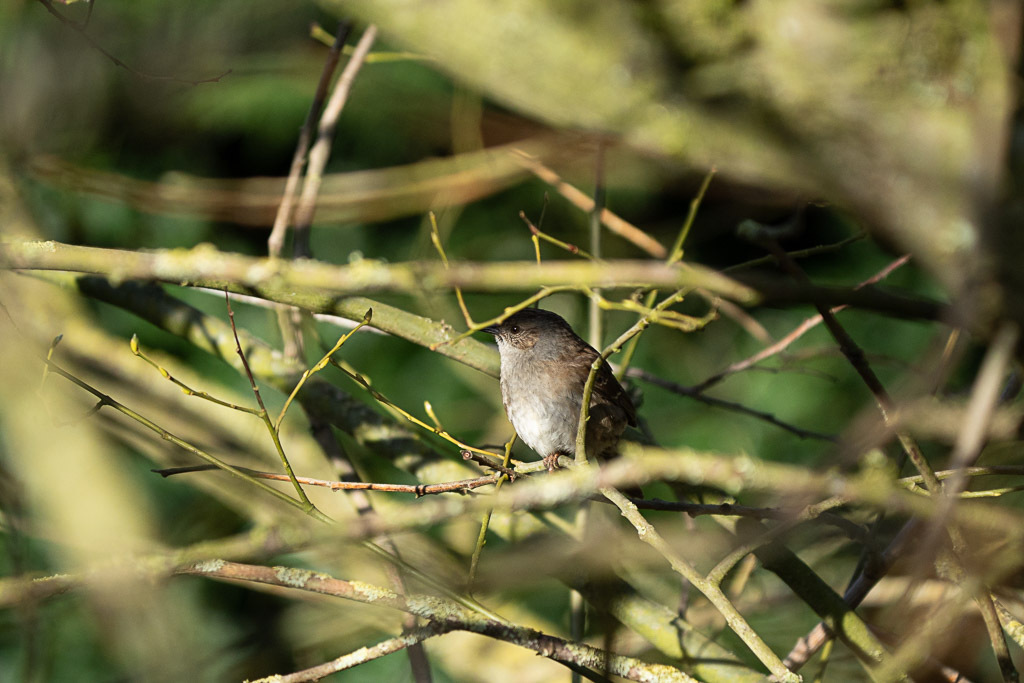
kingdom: Animalia
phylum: Chordata
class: Aves
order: Passeriformes
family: Prunellidae
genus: Prunella
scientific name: Prunella modularis
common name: Dunnock
